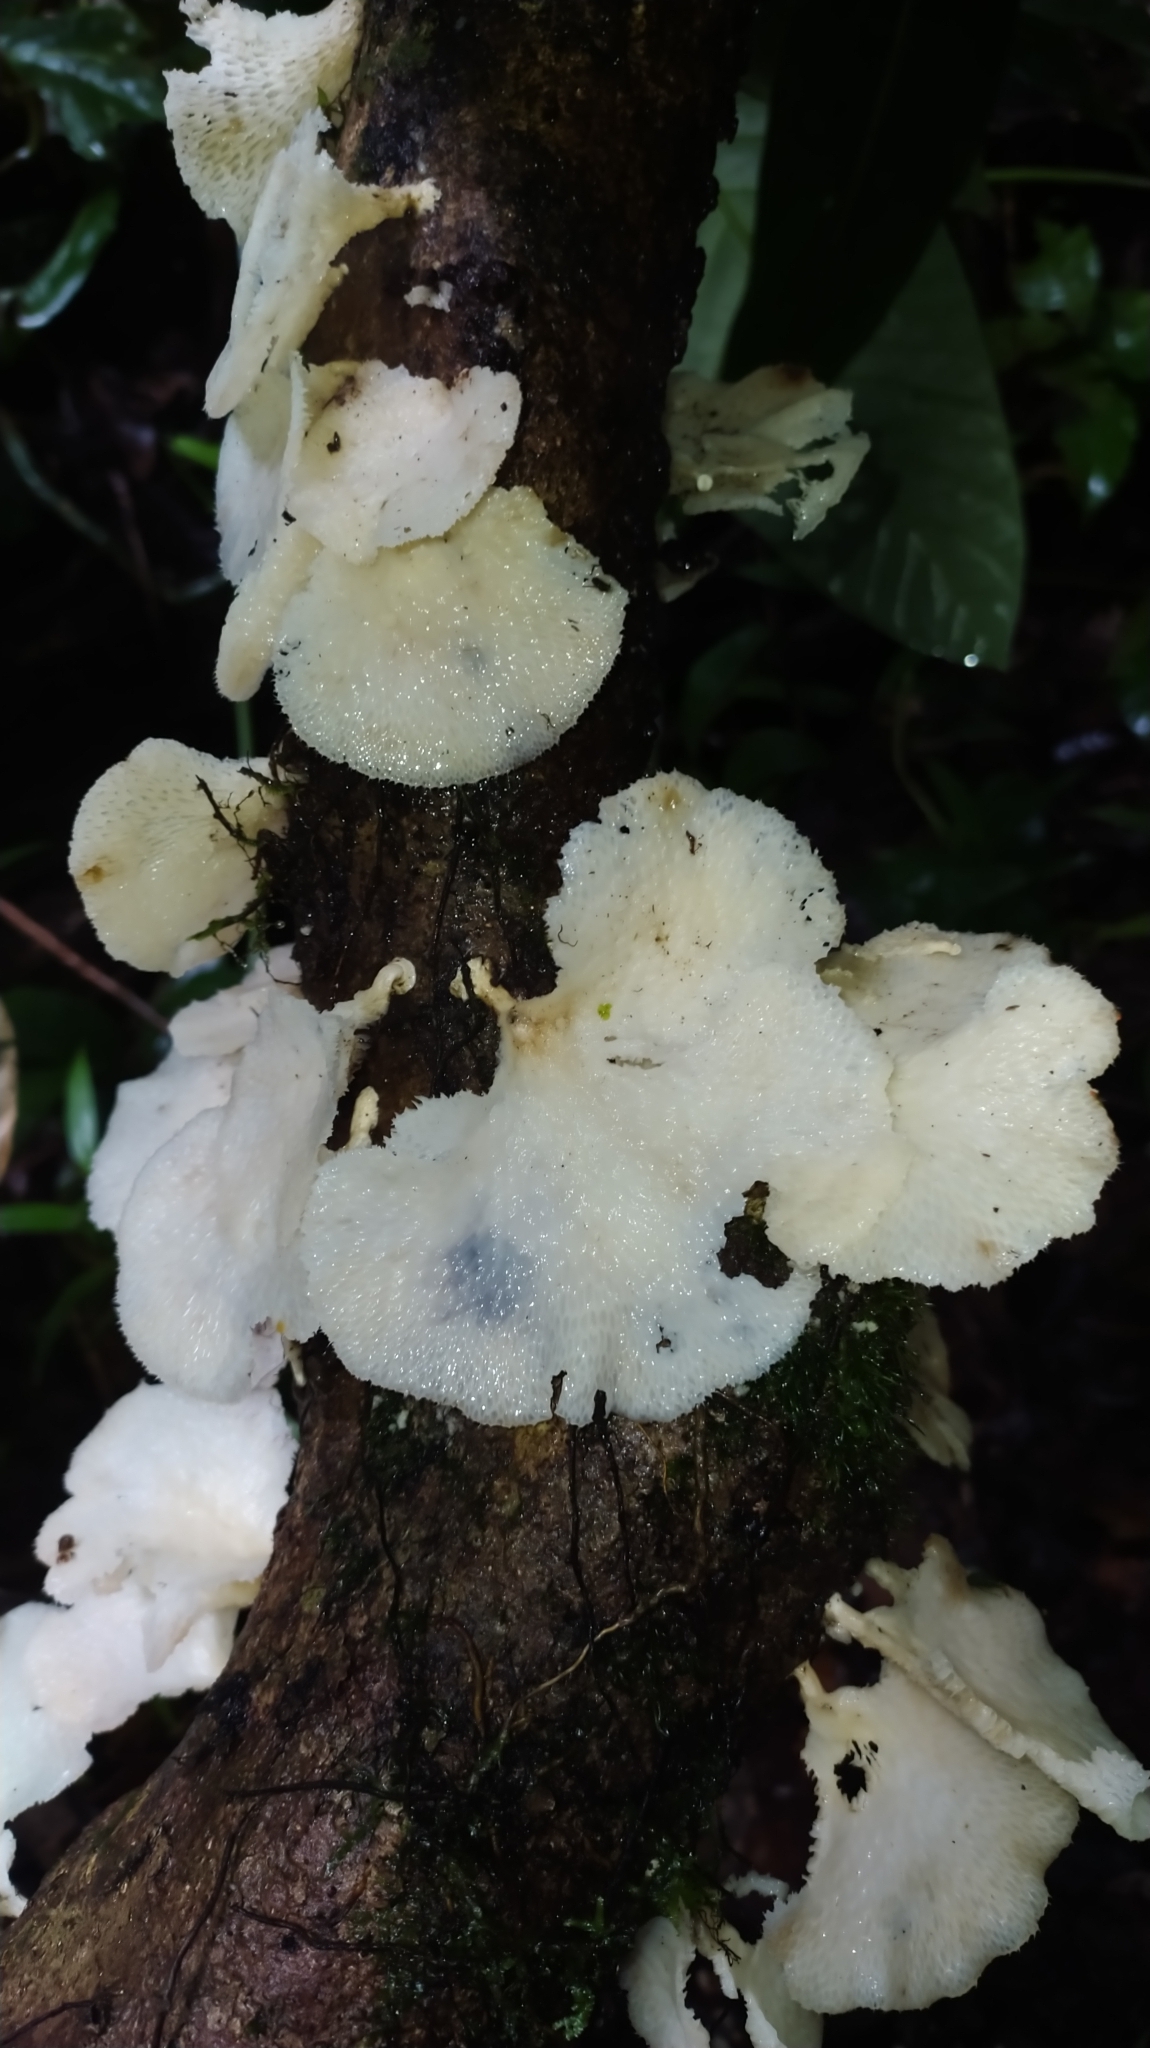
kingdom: Fungi
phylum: Basidiomycota
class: Agaricomycetes
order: Polyporales
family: Polyporaceae
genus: Favolus
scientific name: Favolus tenuiculus
